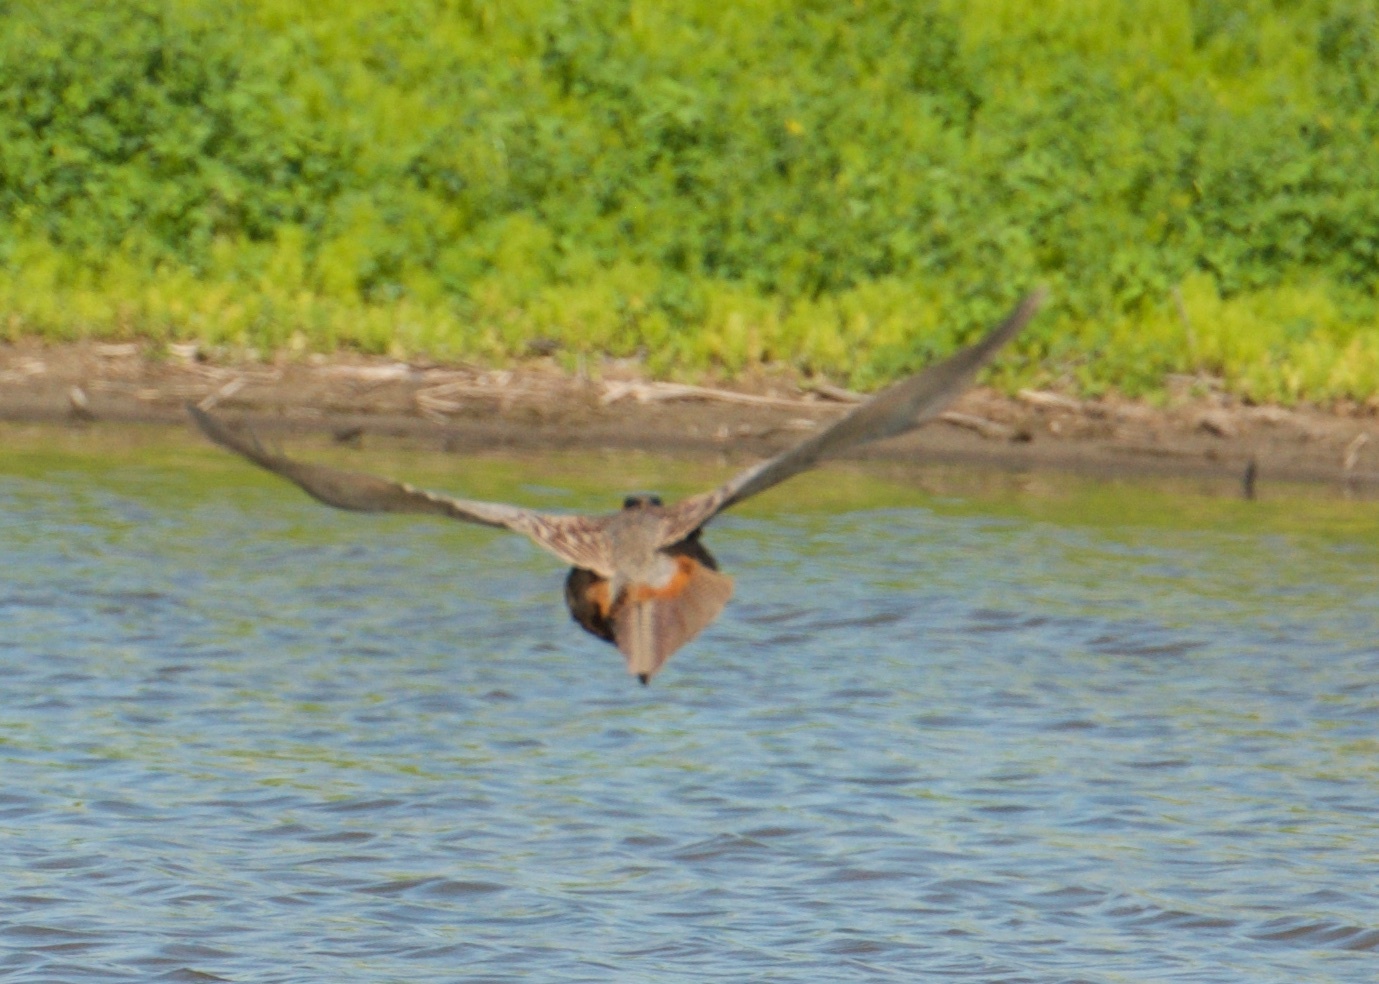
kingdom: Animalia
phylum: Chordata
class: Aves
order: Galliformes
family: Phasianidae
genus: Phasianus
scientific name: Phasianus colchicus
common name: Common pheasant
